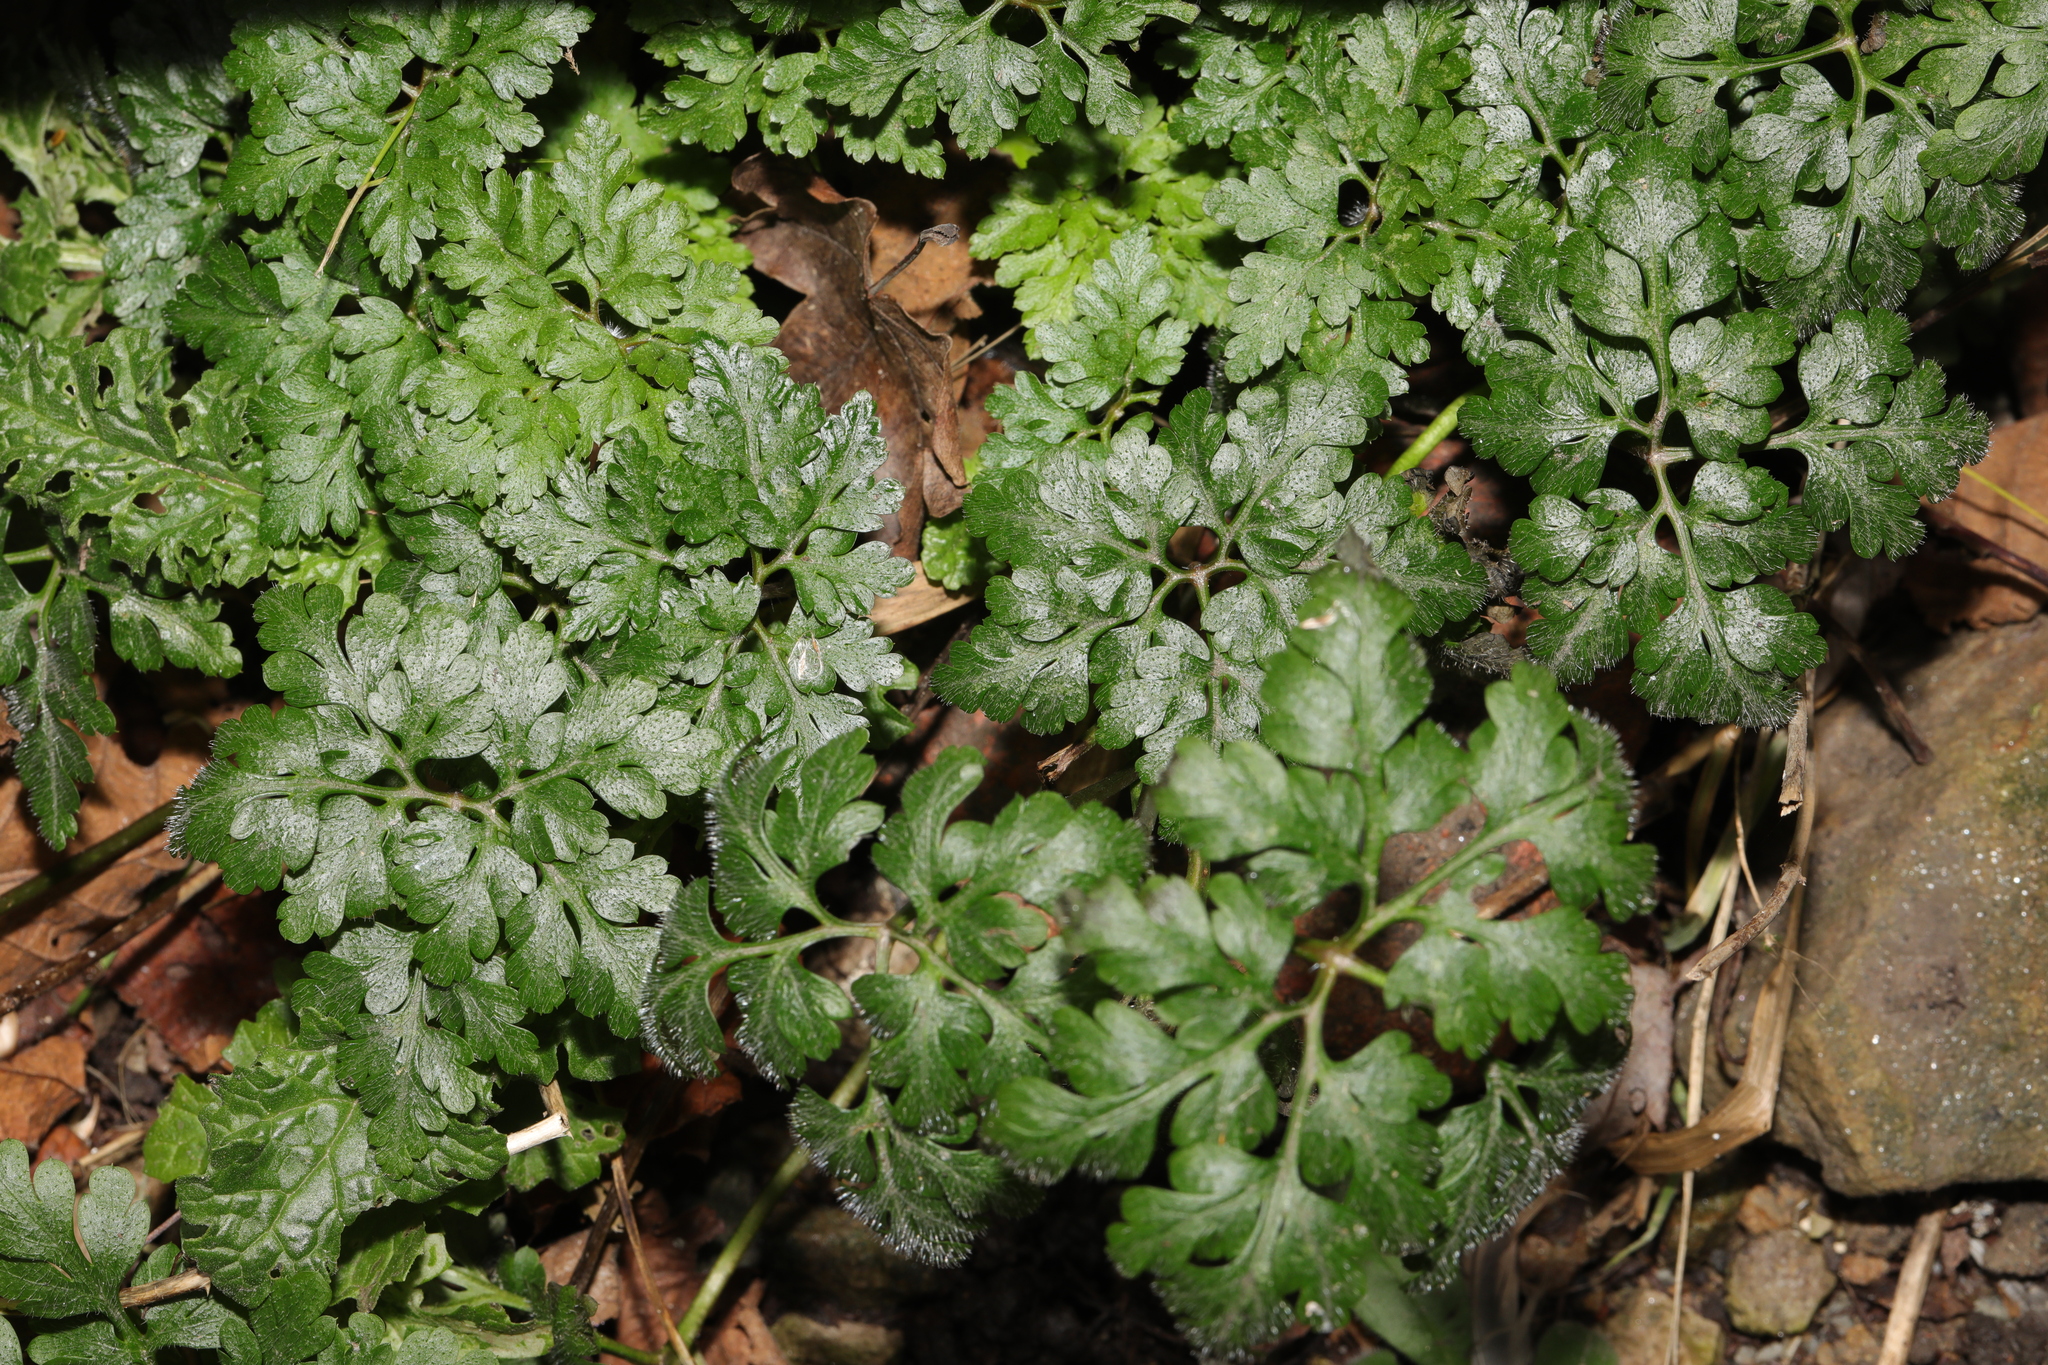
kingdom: Plantae
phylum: Tracheophyta
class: Magnoliopsida
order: Geraniales
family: Geraniaceae
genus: Geranium
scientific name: Geranium robertianum
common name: Herb-robert
